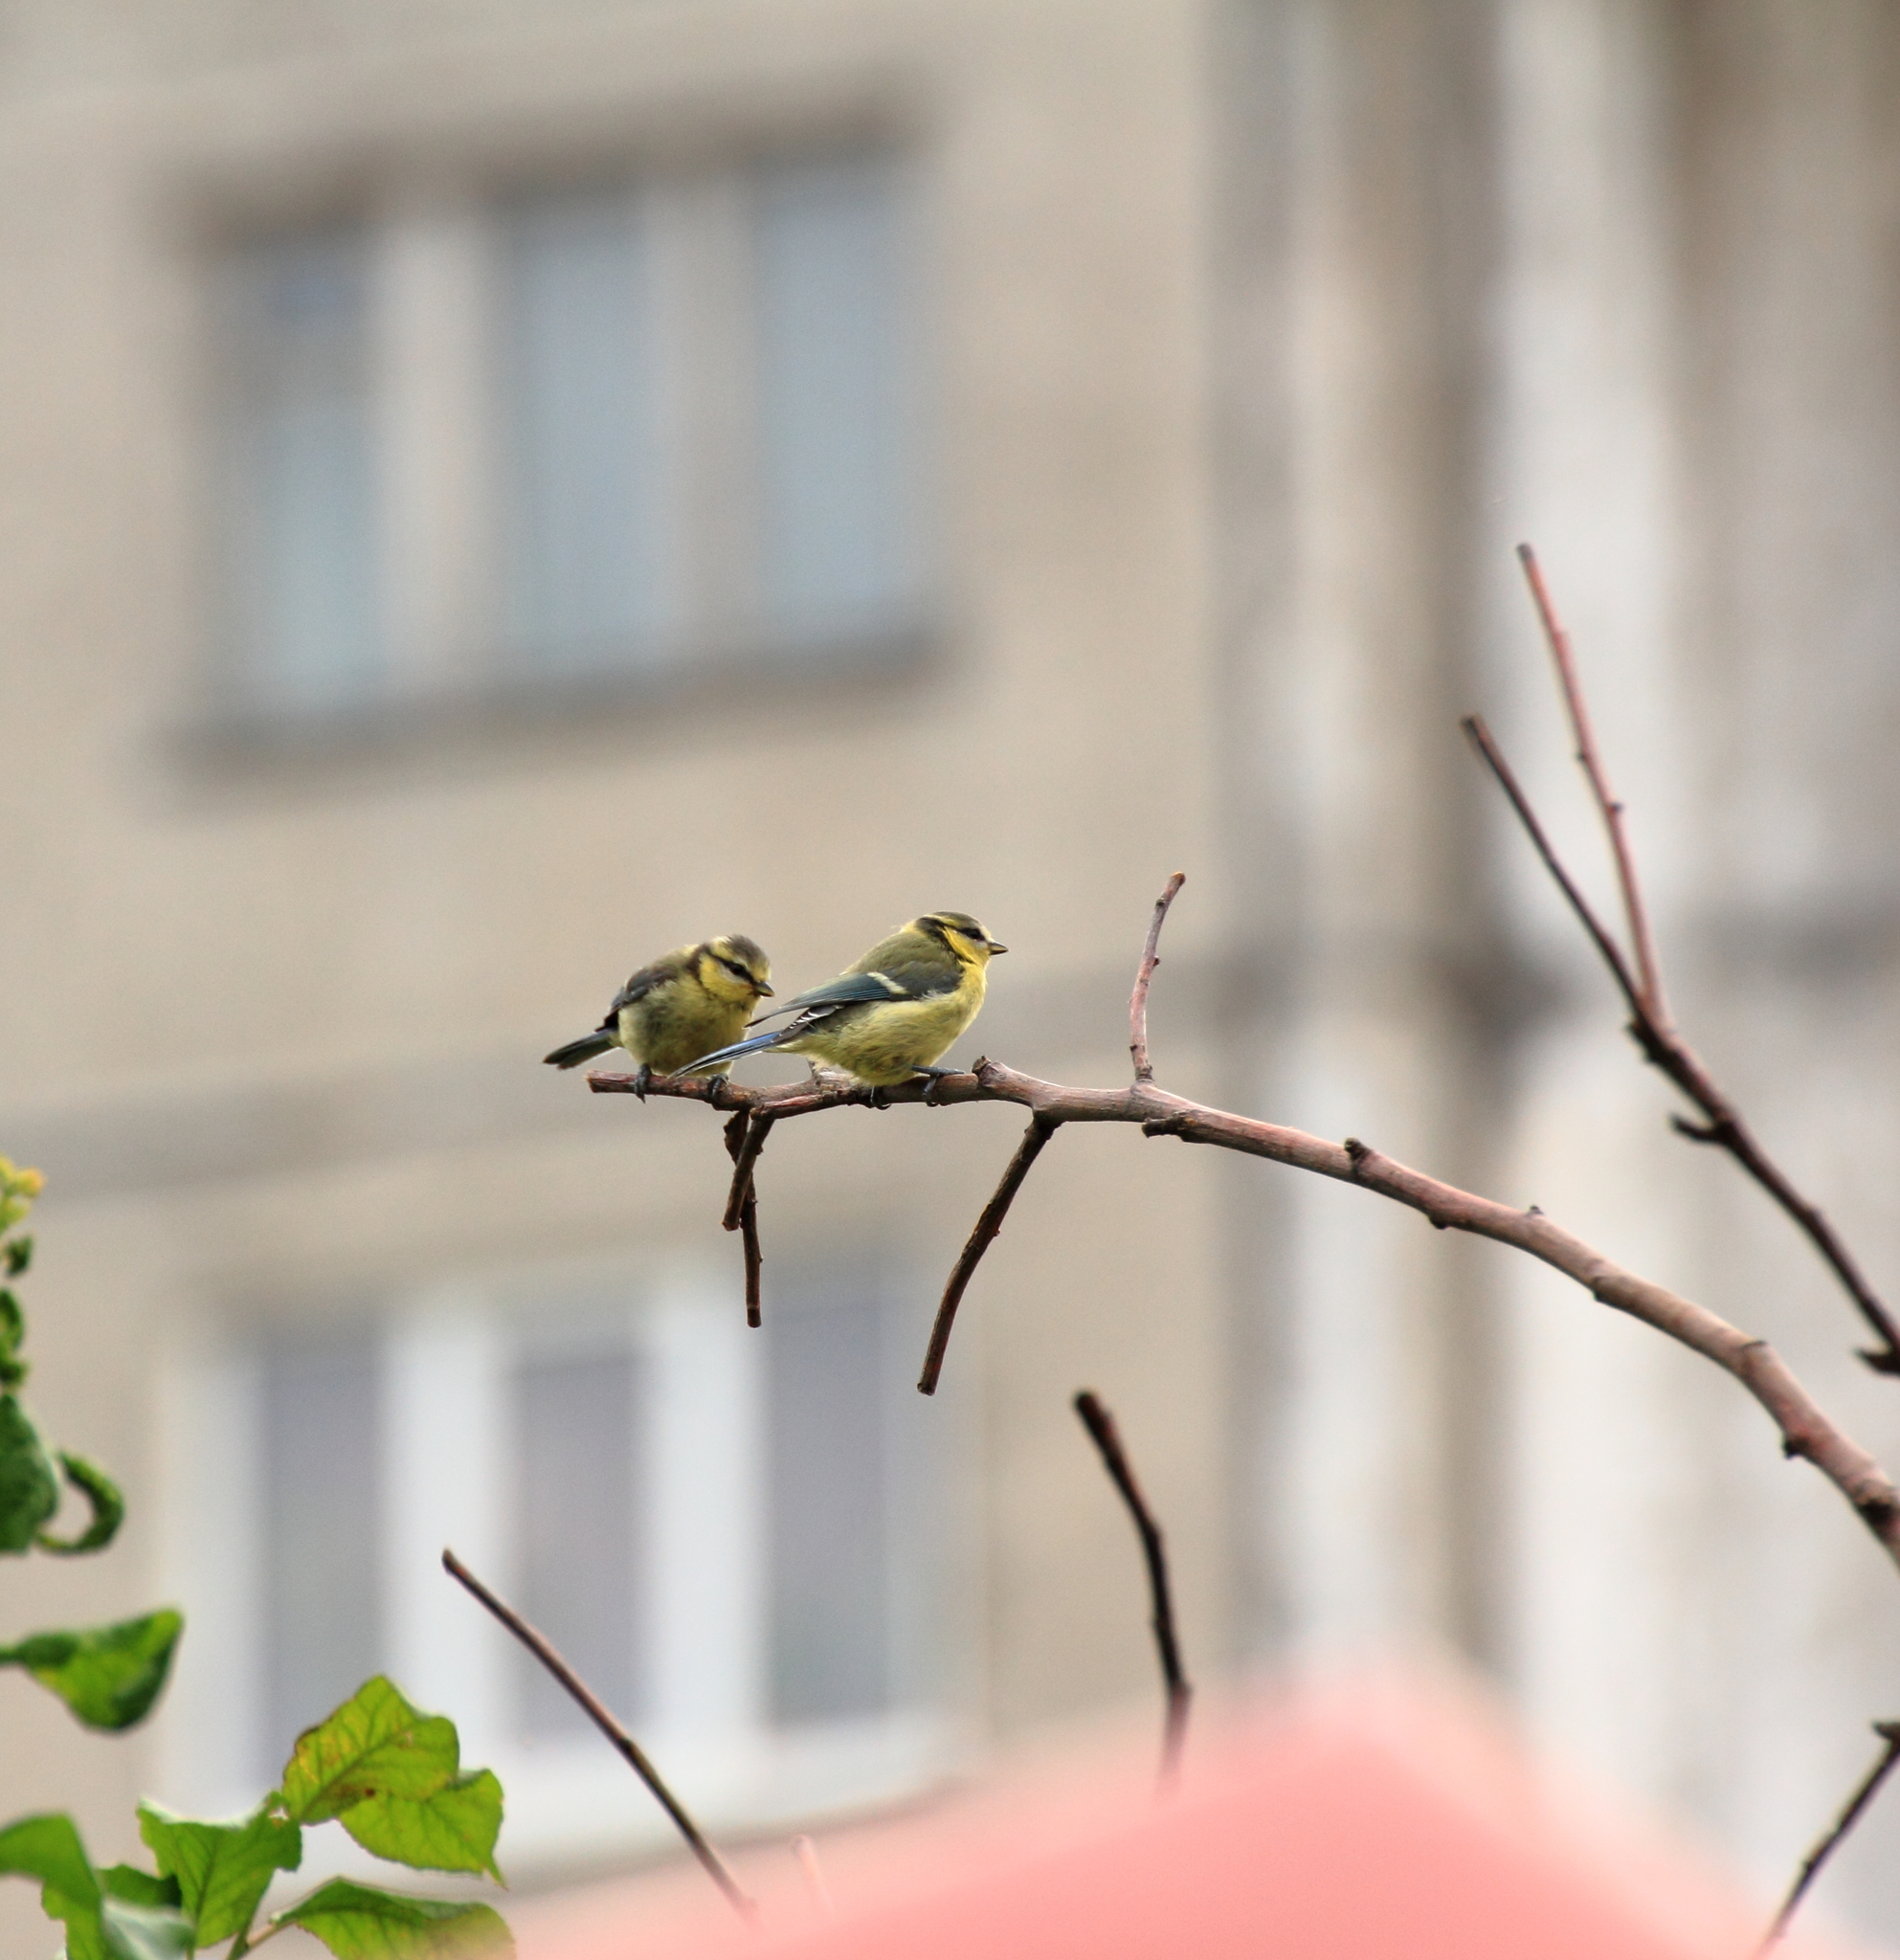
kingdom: Animalia
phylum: Chordata
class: Aves
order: Passeriformes
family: Paridae
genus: Cyanistes
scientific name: Cyanistes caeruleus
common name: Eurasian blue tit
